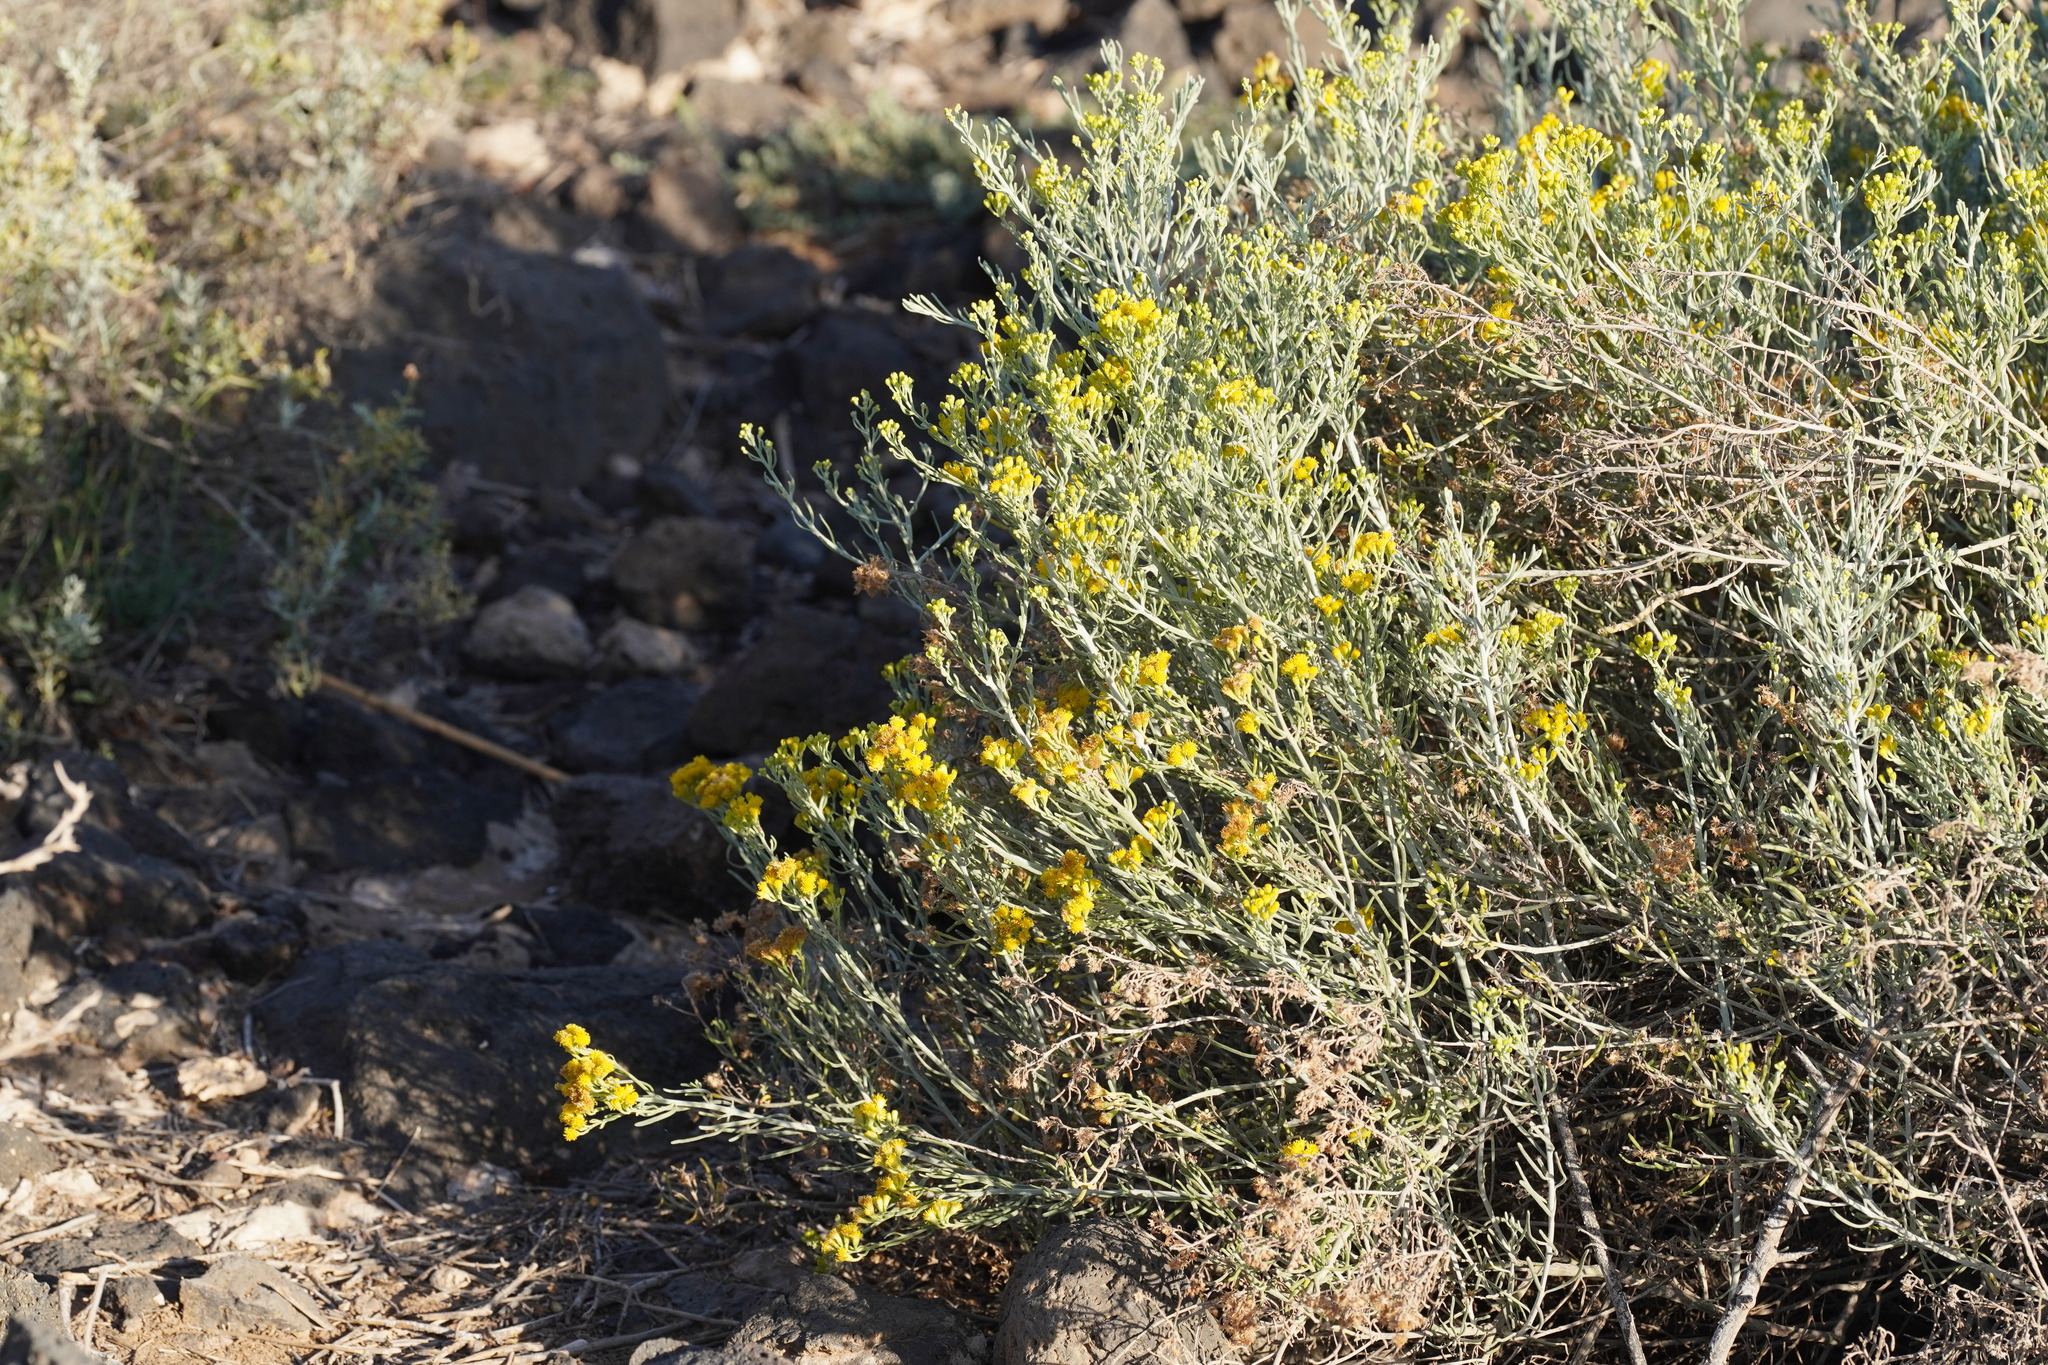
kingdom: Plantae
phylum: Tracheophyta
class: Magnoliopsida
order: Asterales
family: Asteraceae
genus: Schizogyne
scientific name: Schizogyne sericea
